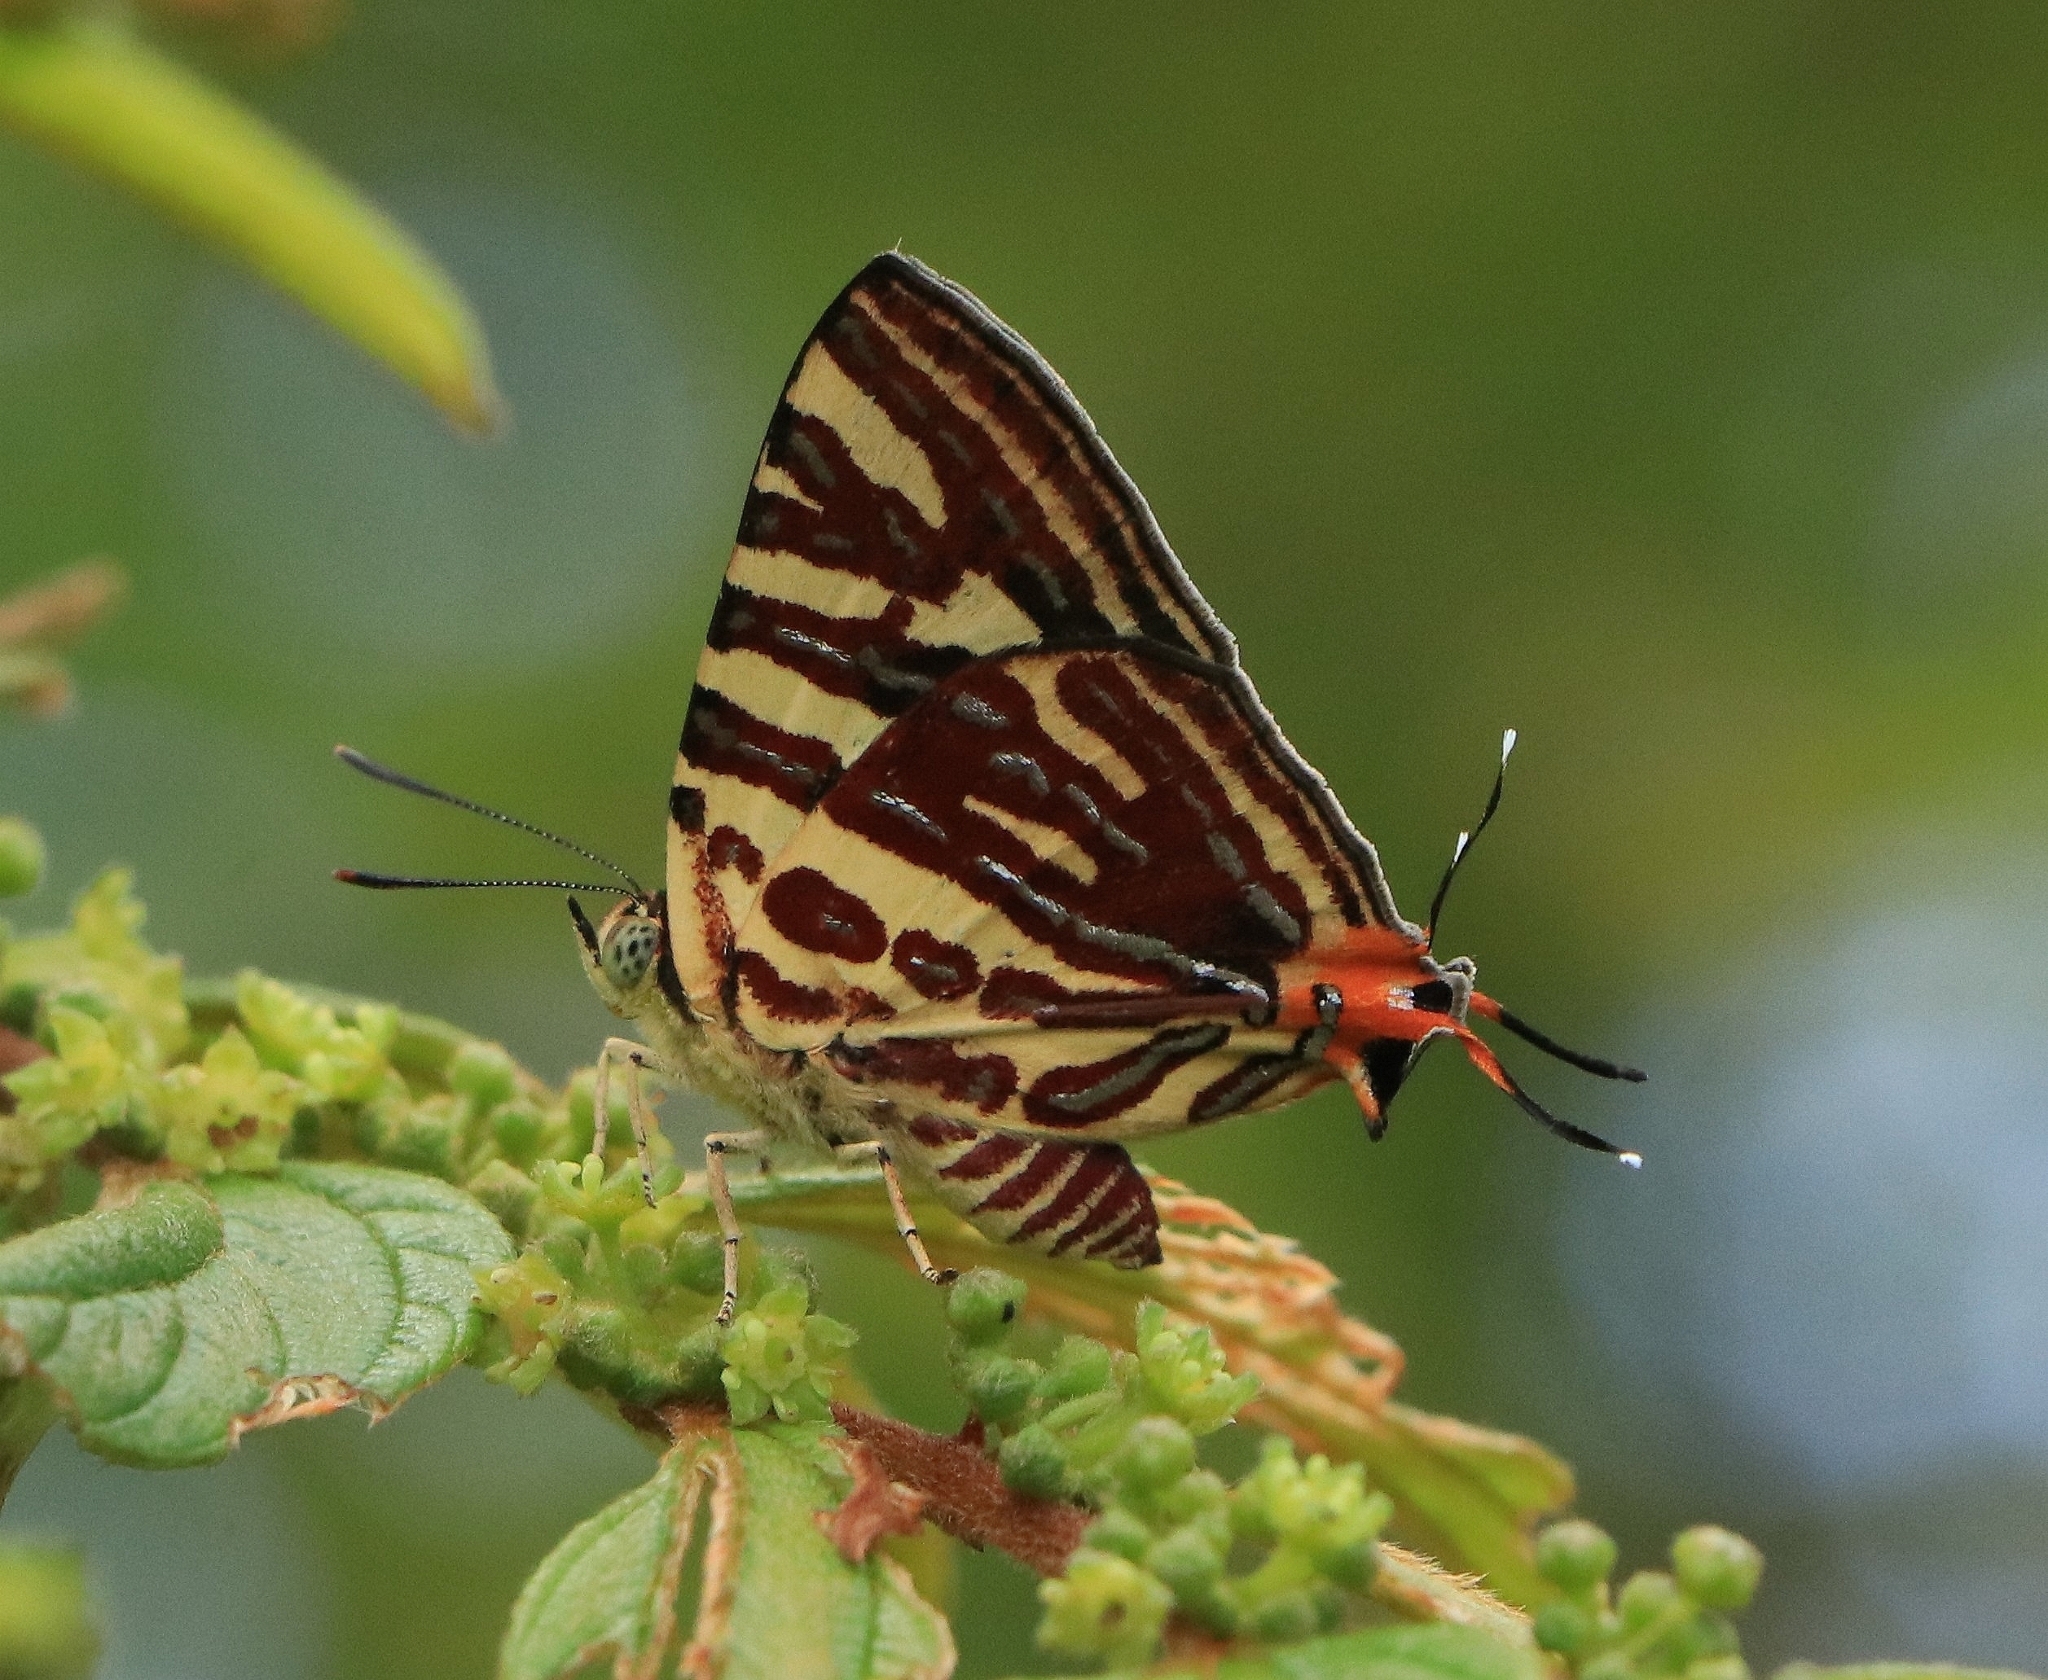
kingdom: Animalia
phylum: Arthropoda
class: Insecta
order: Lepidoptera
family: Lycaenidae
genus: Cigaritis
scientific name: Cigaritis lohita
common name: Long-banded silverline
